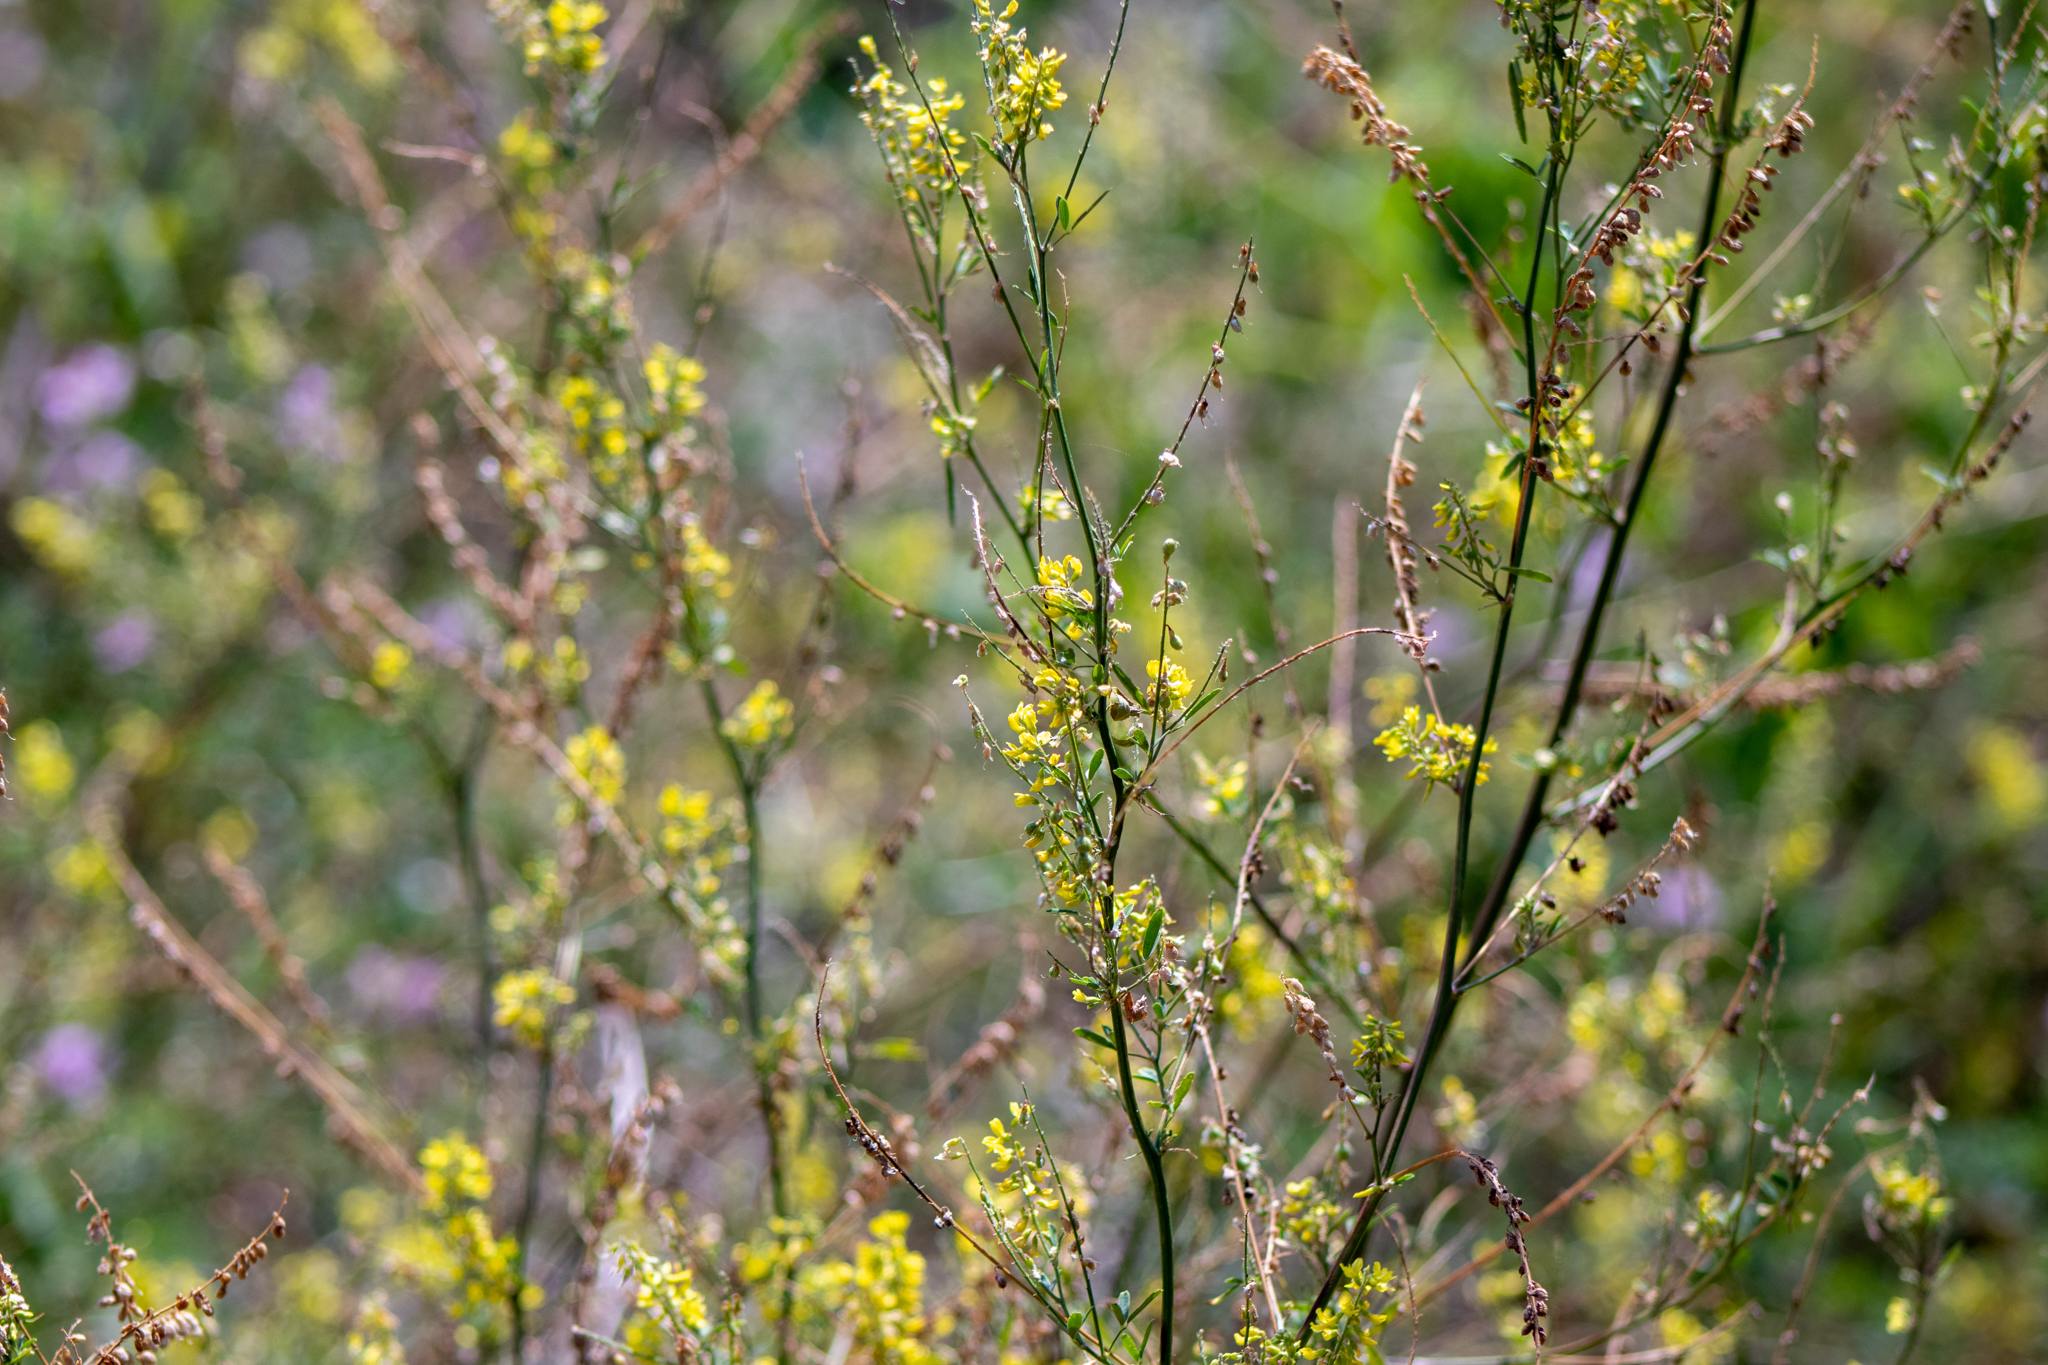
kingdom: Plantae
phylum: Tracheophyta
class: Magnoliopsida
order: Fabales
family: Fabaceae
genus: Melilotus
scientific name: Melilotus officinalis
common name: Sweetclover
